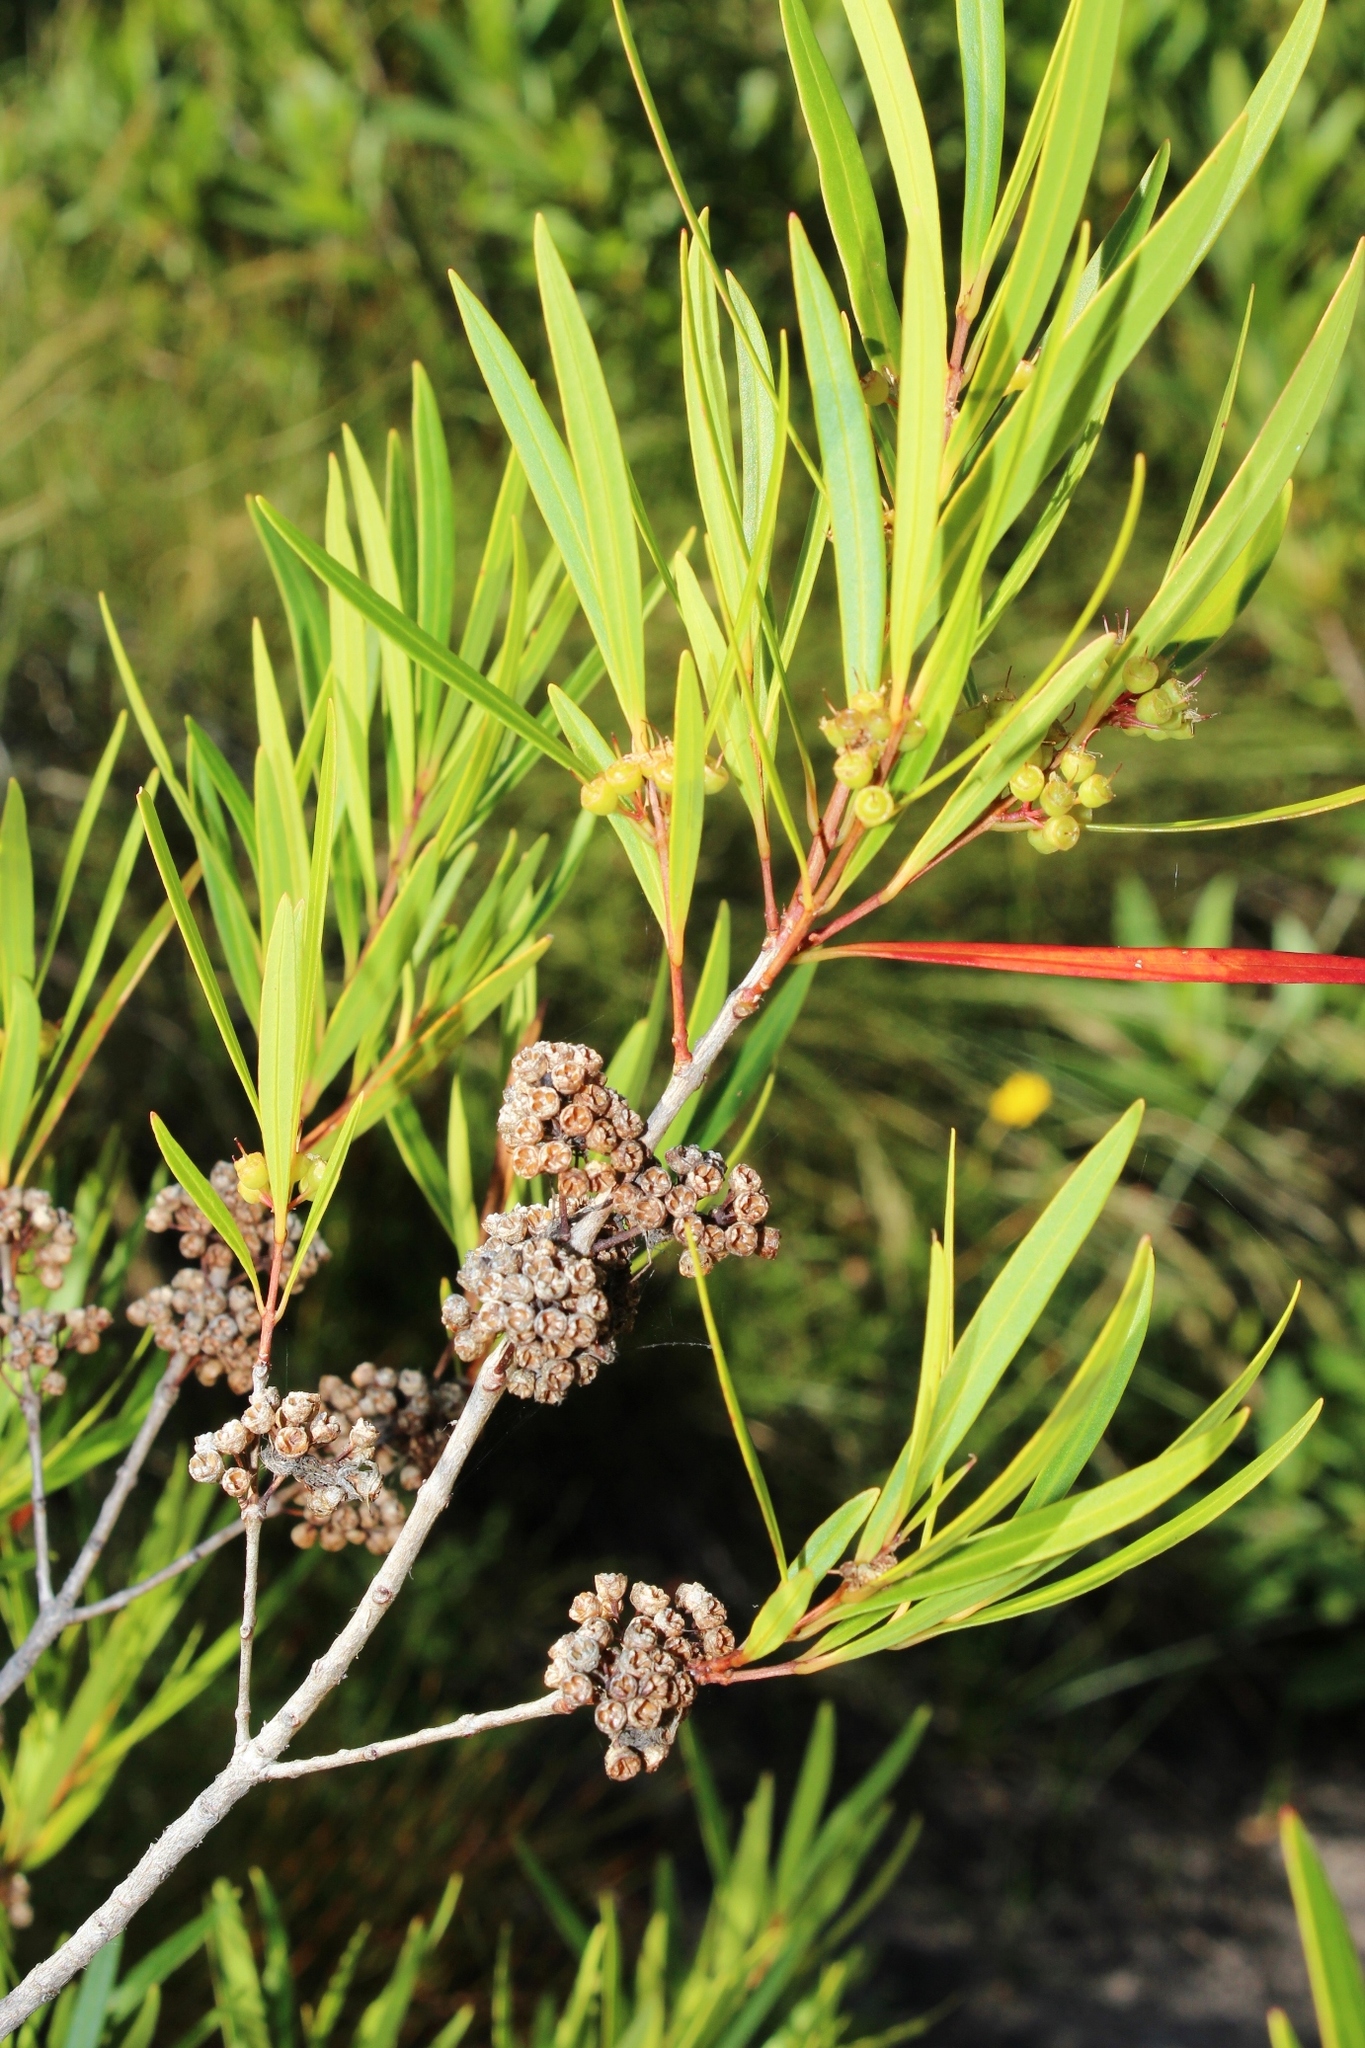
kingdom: Plantae
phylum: Tracheophyta
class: Magnoliopsida
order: Myrtales
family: Myrtaceae
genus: Callistemon
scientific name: Callistemon lanceolatus
